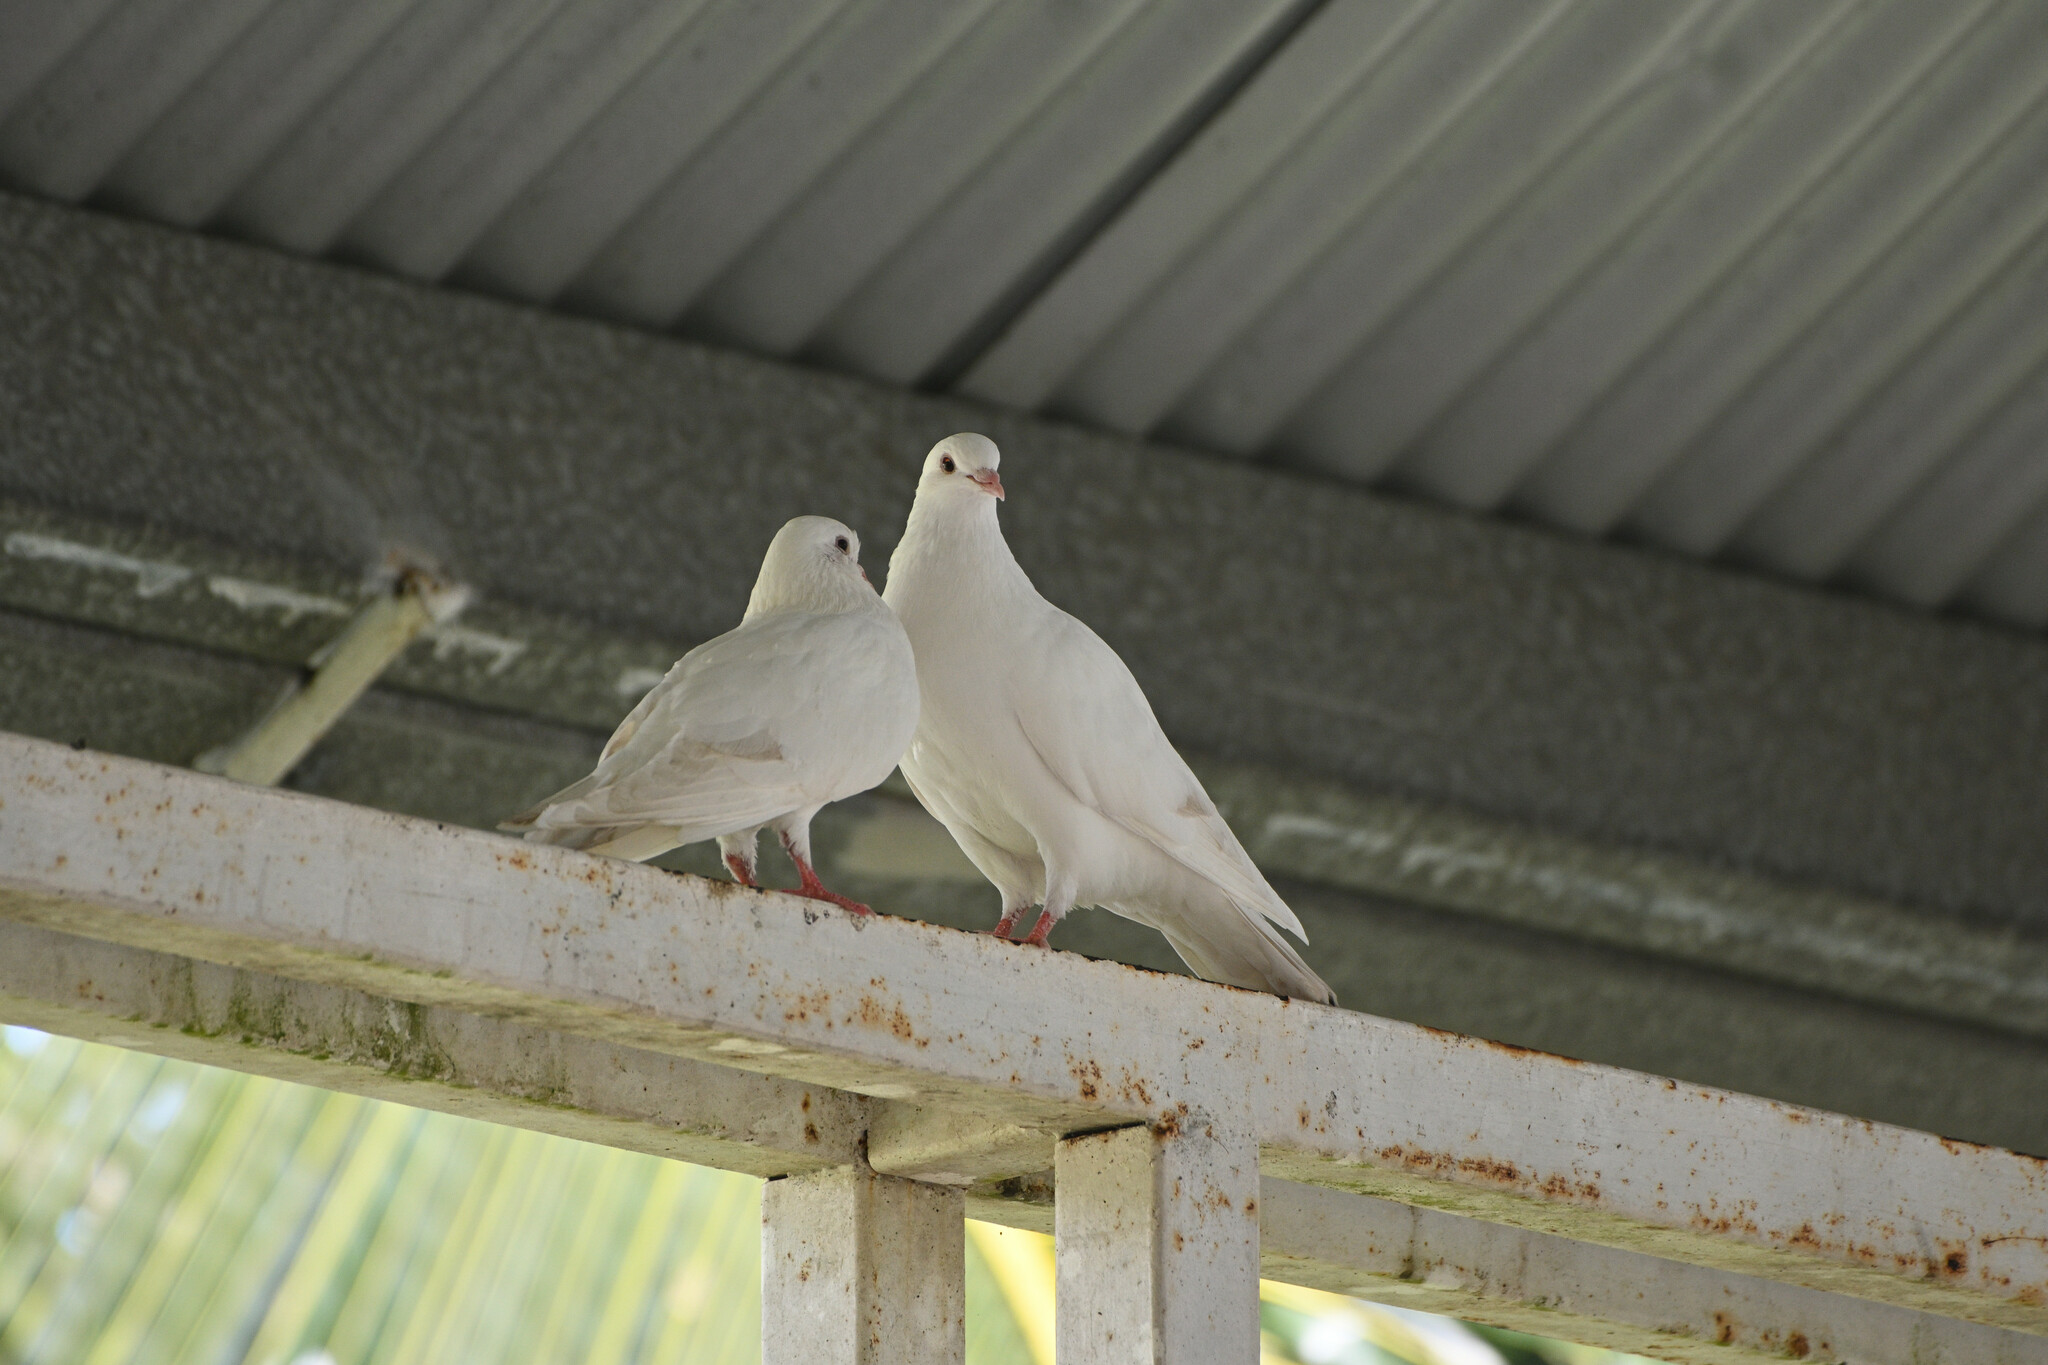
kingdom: Animalia
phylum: Chordata
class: Aves
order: Columbiformes
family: Columbidae
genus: Columba
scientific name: Columba livia
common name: Rock pigeon
